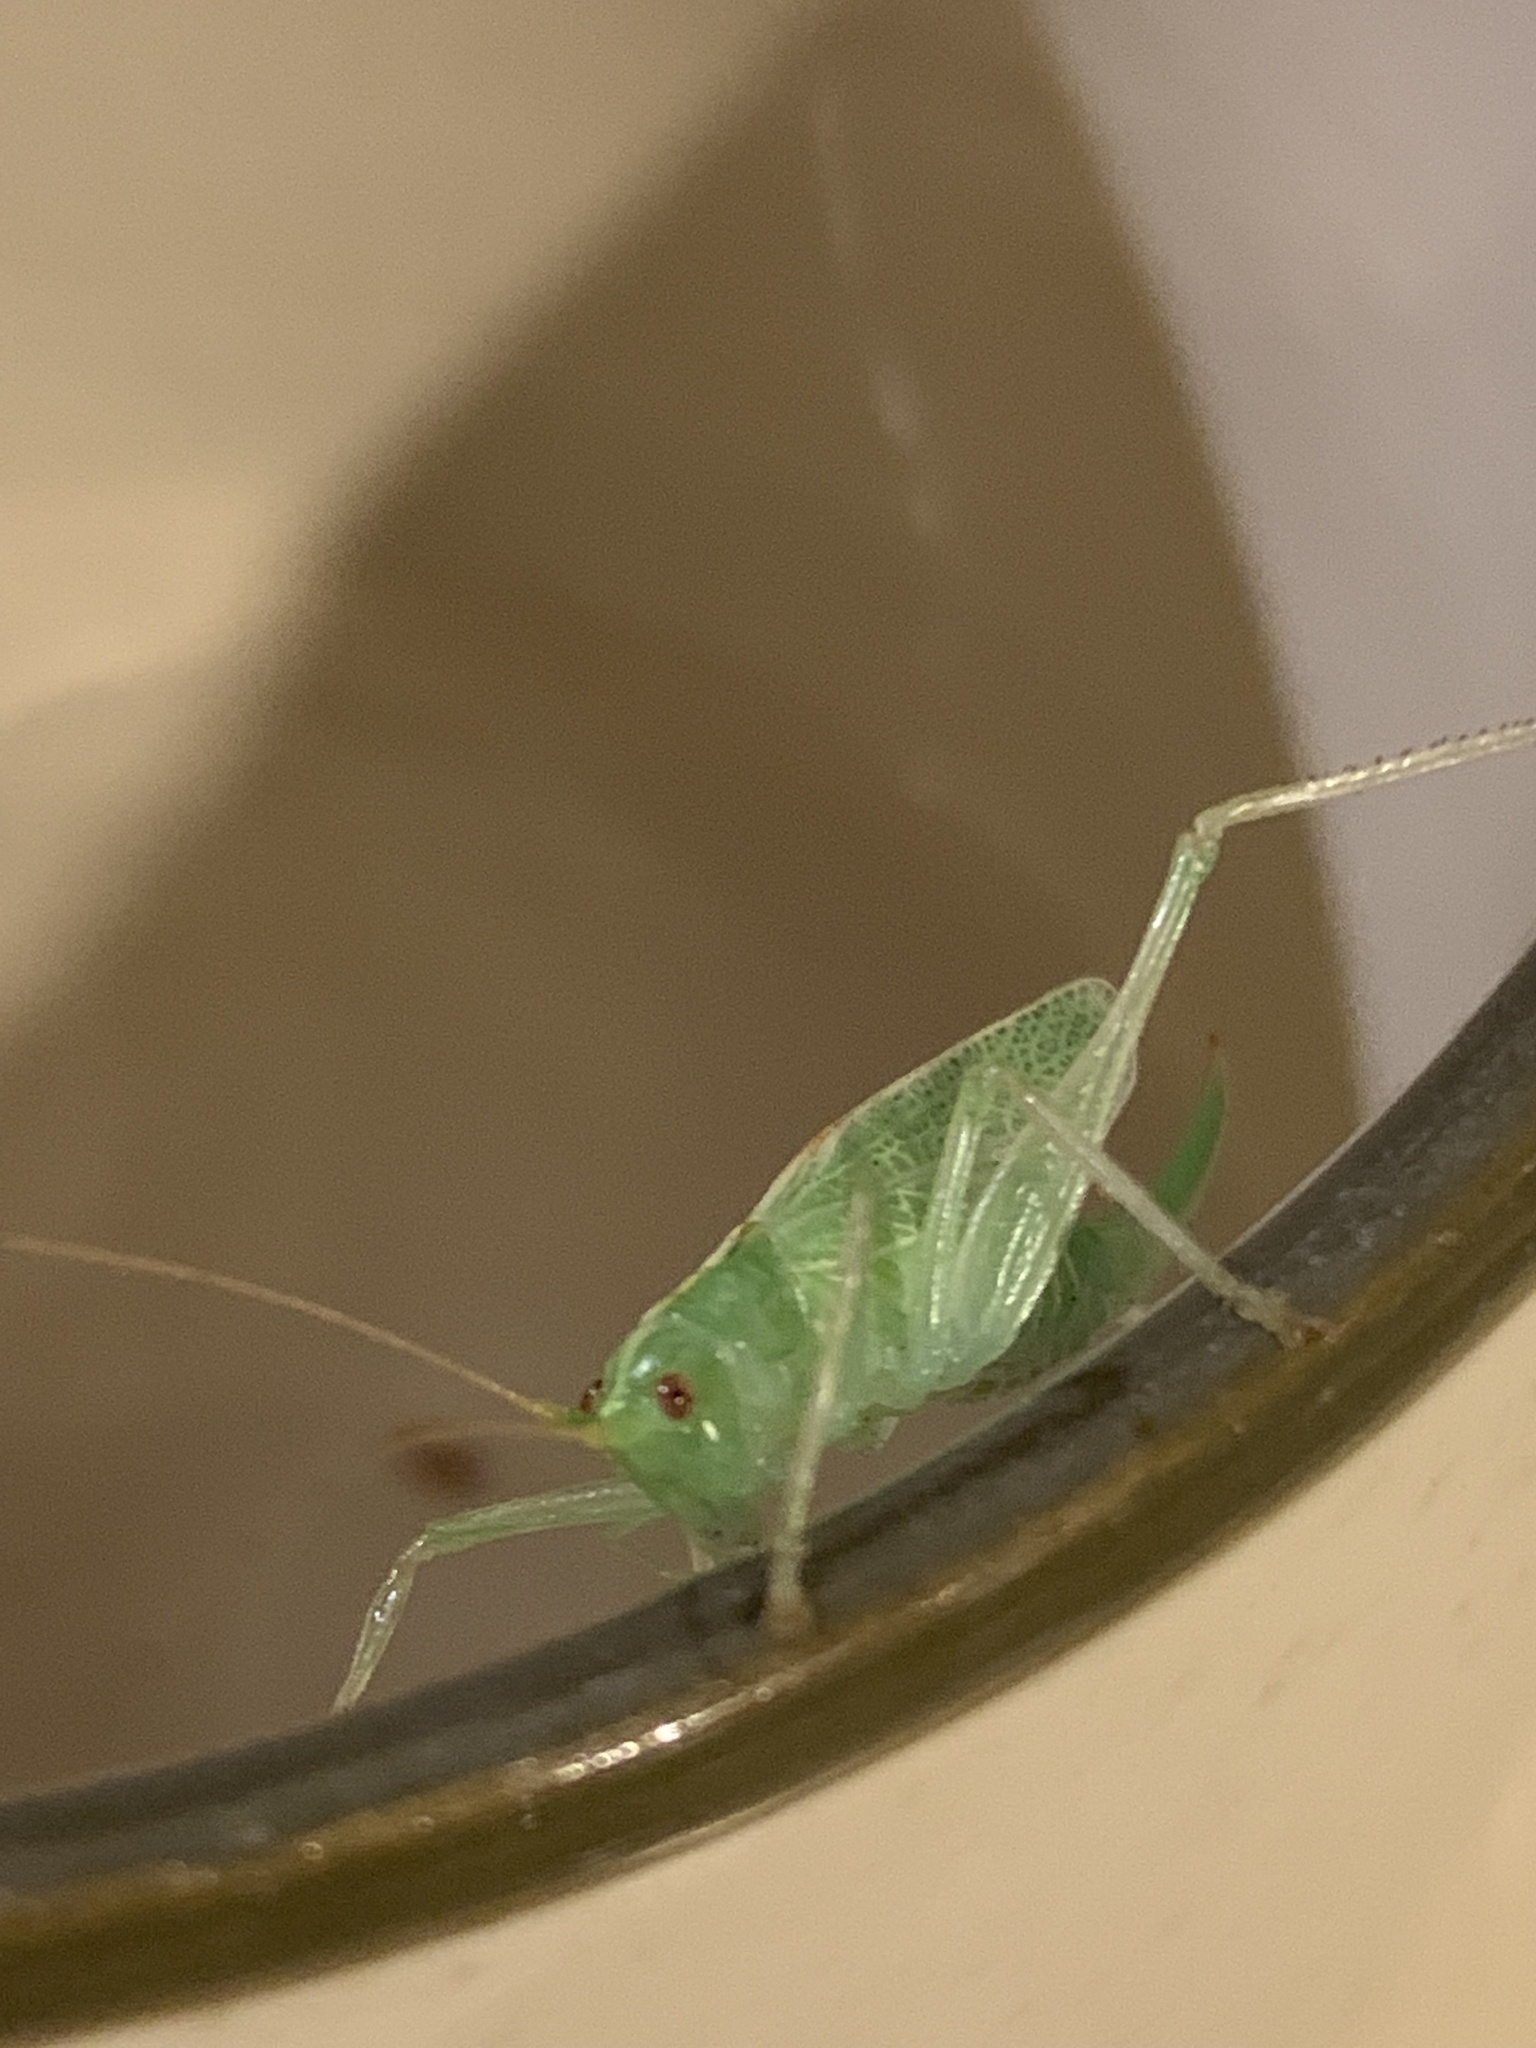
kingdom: Animalia
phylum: Arthropoda
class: Insecta
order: Orthoptera
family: Tettigoniidae
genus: Meconema
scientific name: Meconema thalassinum
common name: Oak bush-cricket
